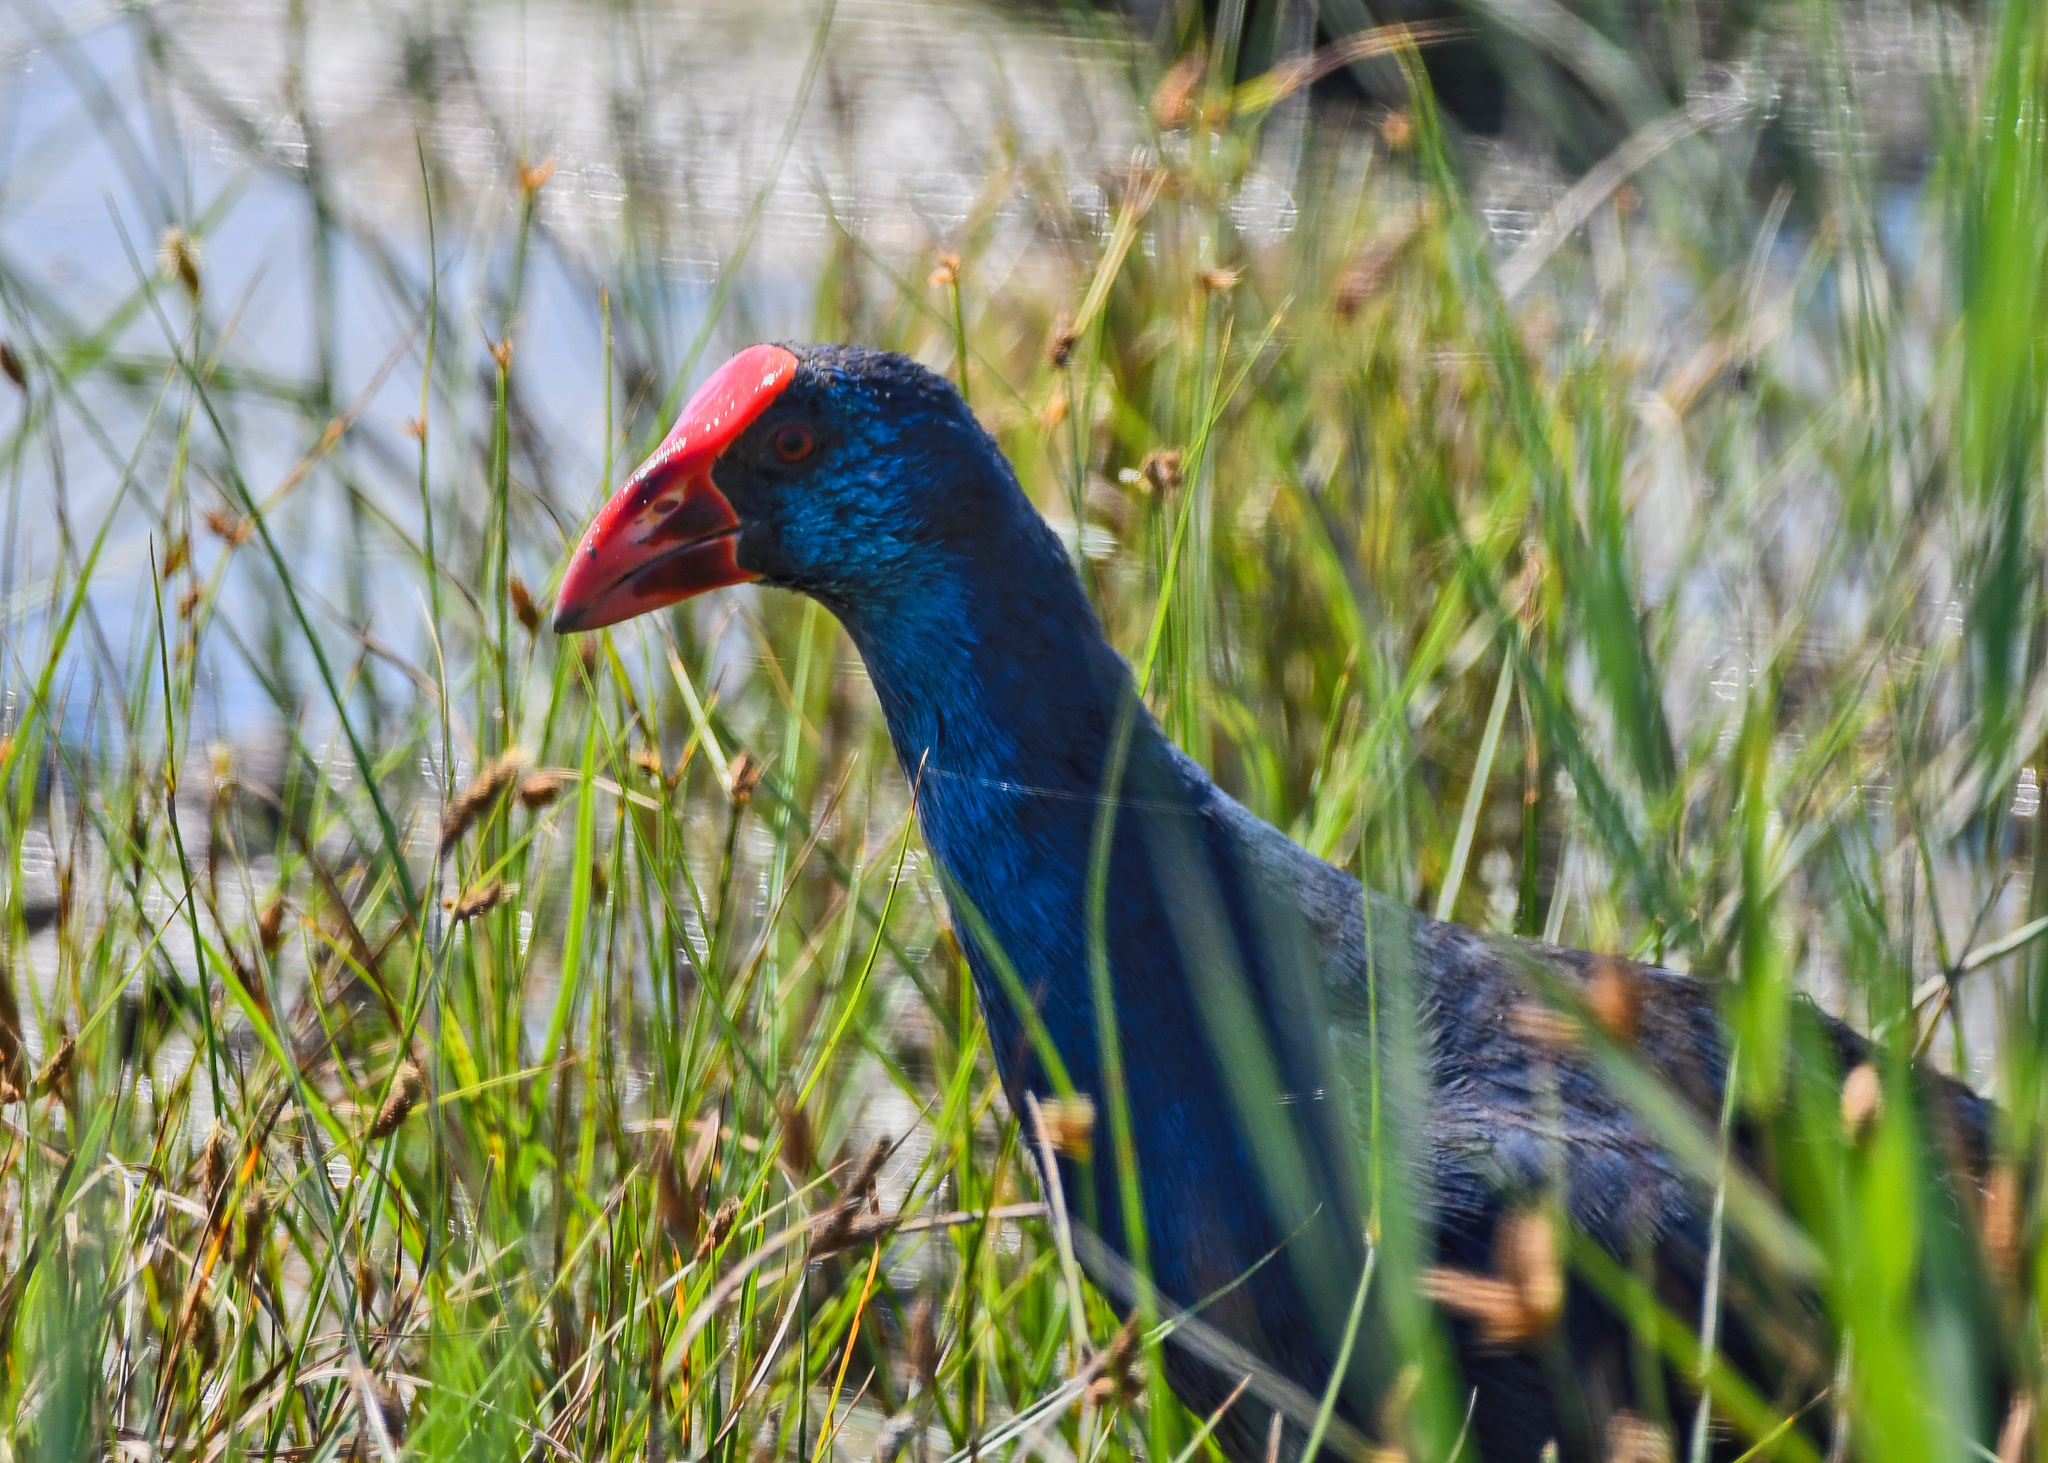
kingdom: Animalia
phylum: Chordata
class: Aves
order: Gruiformes
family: Rallidae
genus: Porphyrio
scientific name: Porphyrio porphyrio
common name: Purple swamphen
